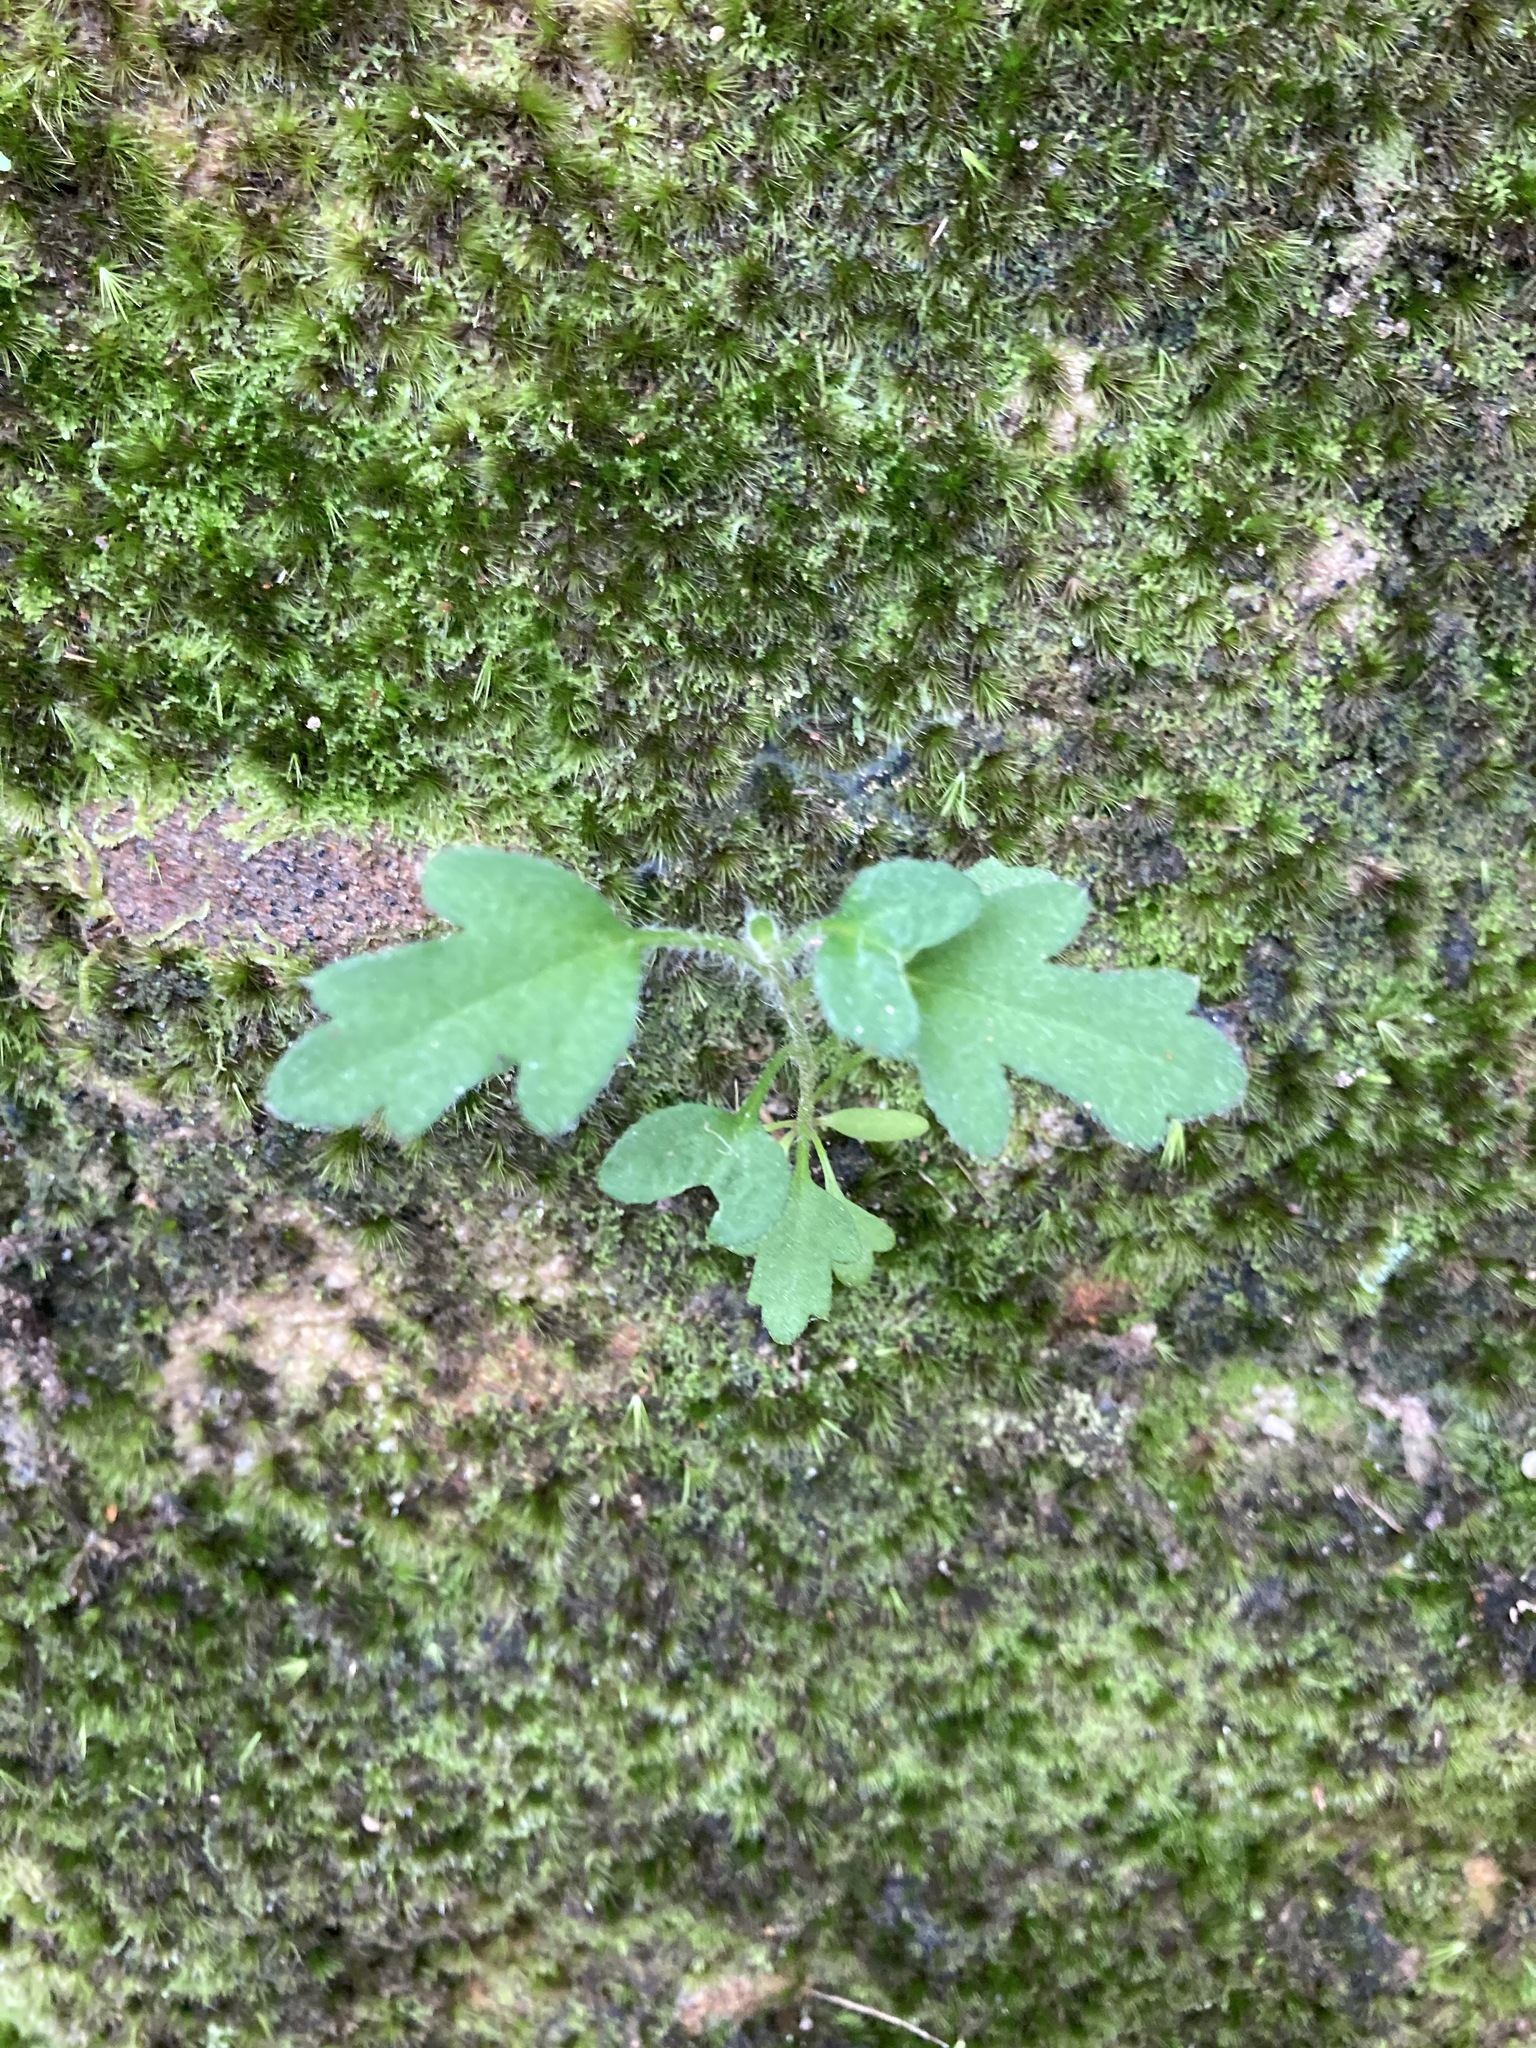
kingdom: Plantae
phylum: Tracheophyta
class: Magnoliopsida
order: Apiales
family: Apiaceae
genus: Xanthosia
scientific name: Xanthosia pilosa
